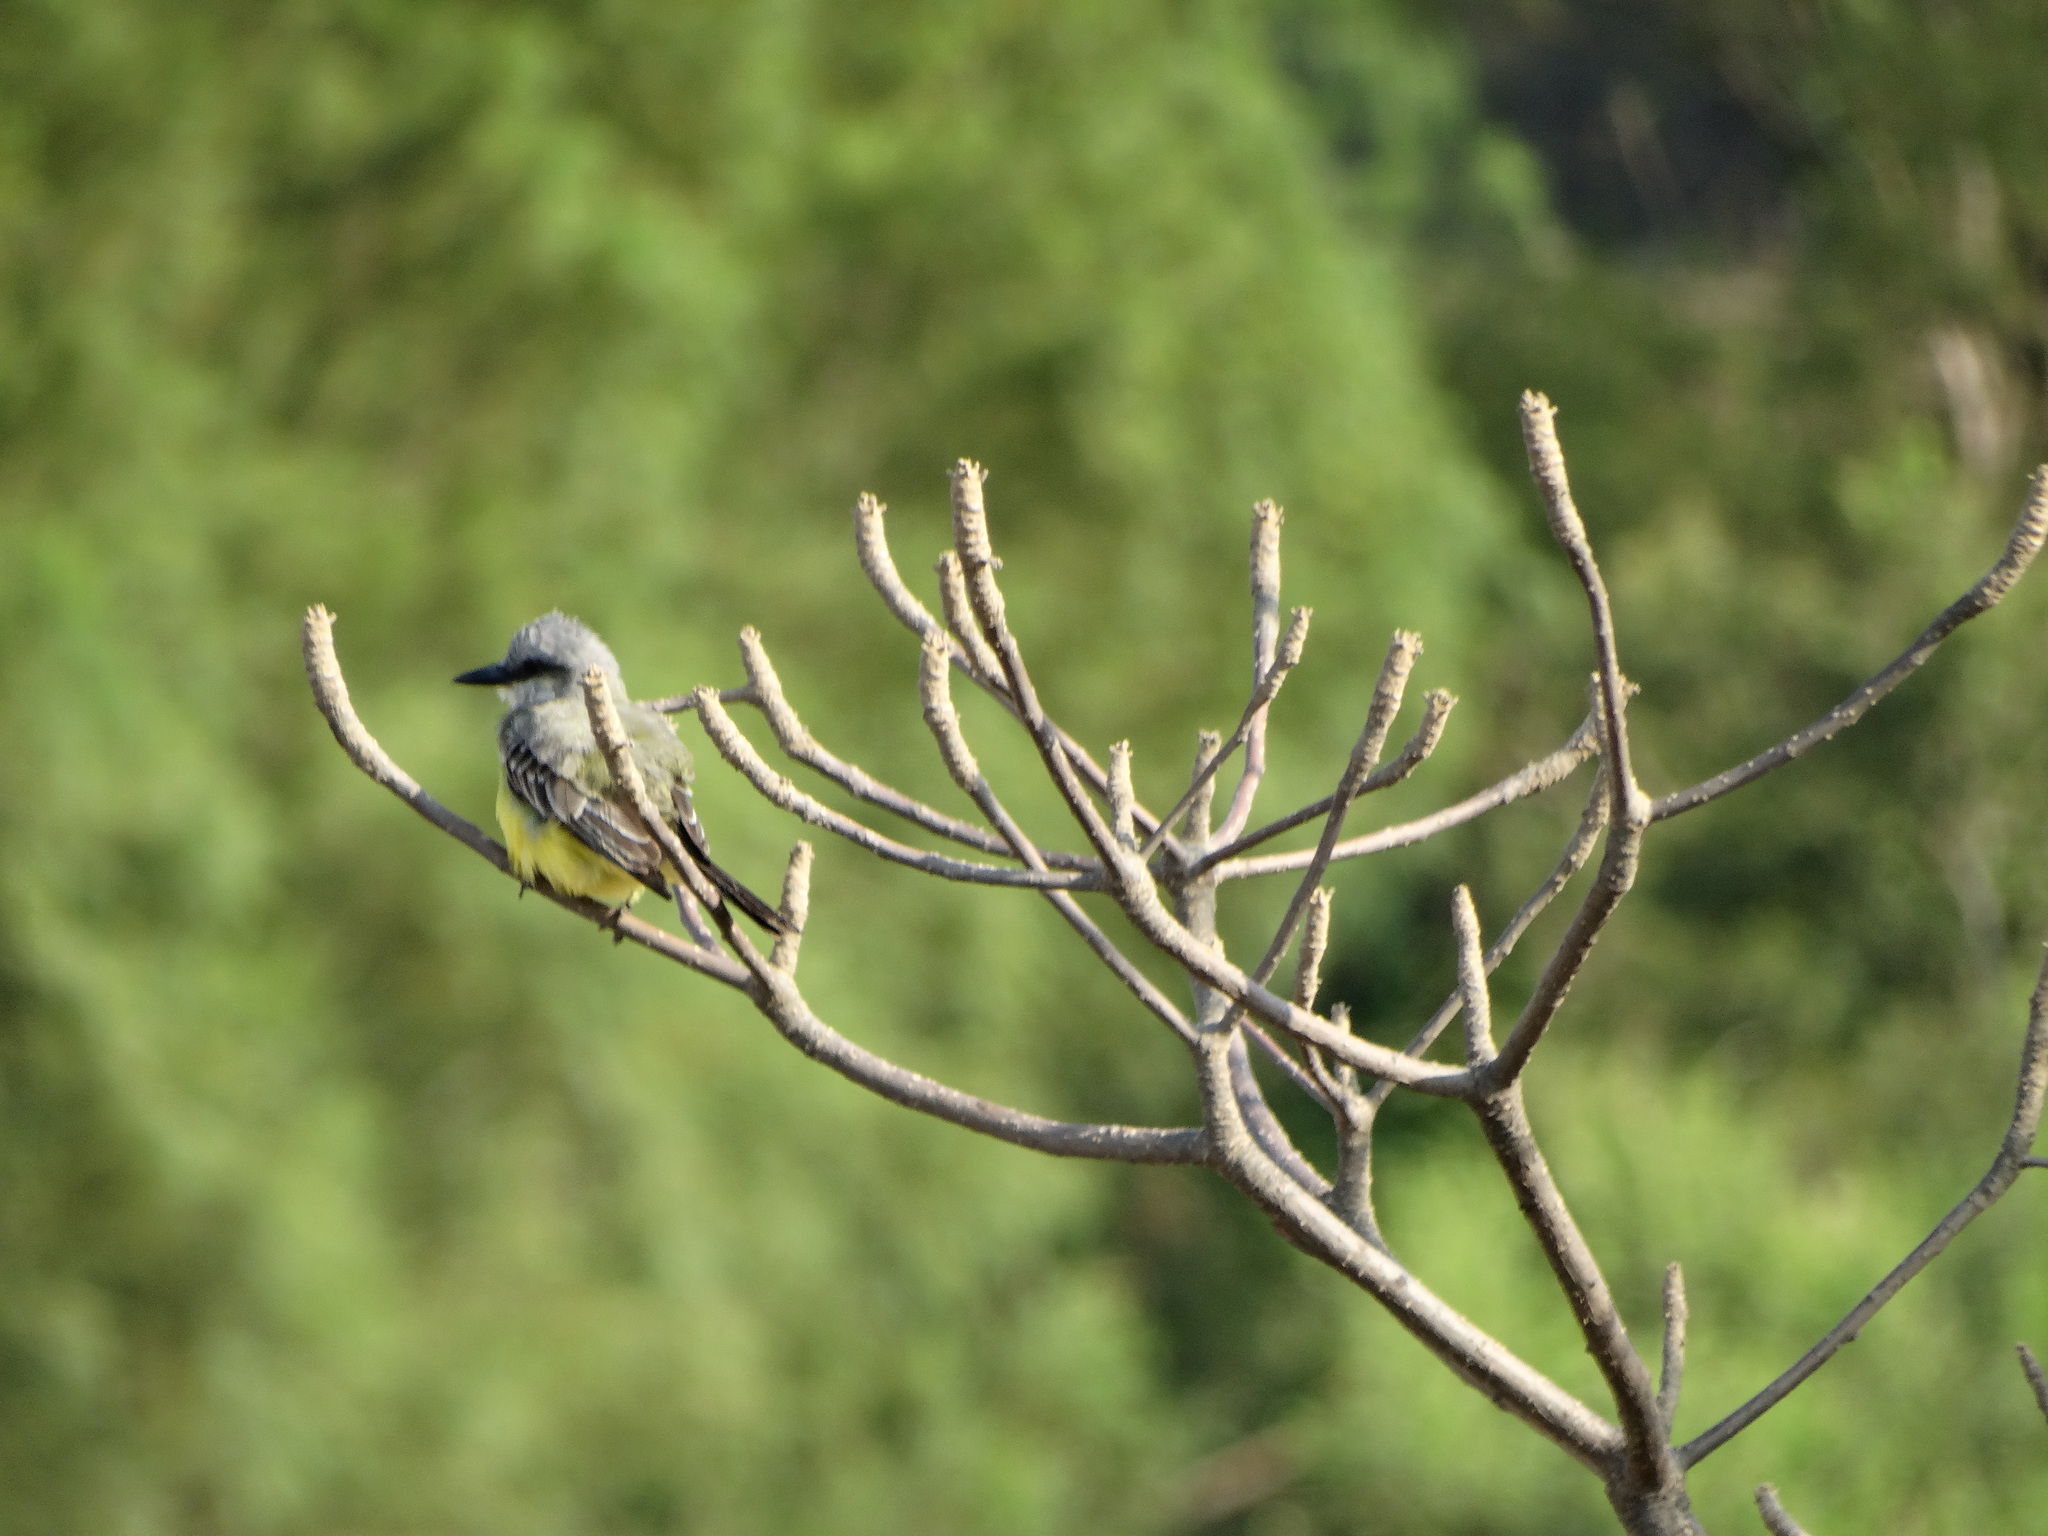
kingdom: Animalia
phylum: Chordata
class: Aves
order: Passeriformes
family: Tyrannidae
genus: Tyrannus
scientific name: Tyrannus melancholicus
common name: Tropical kingbird
